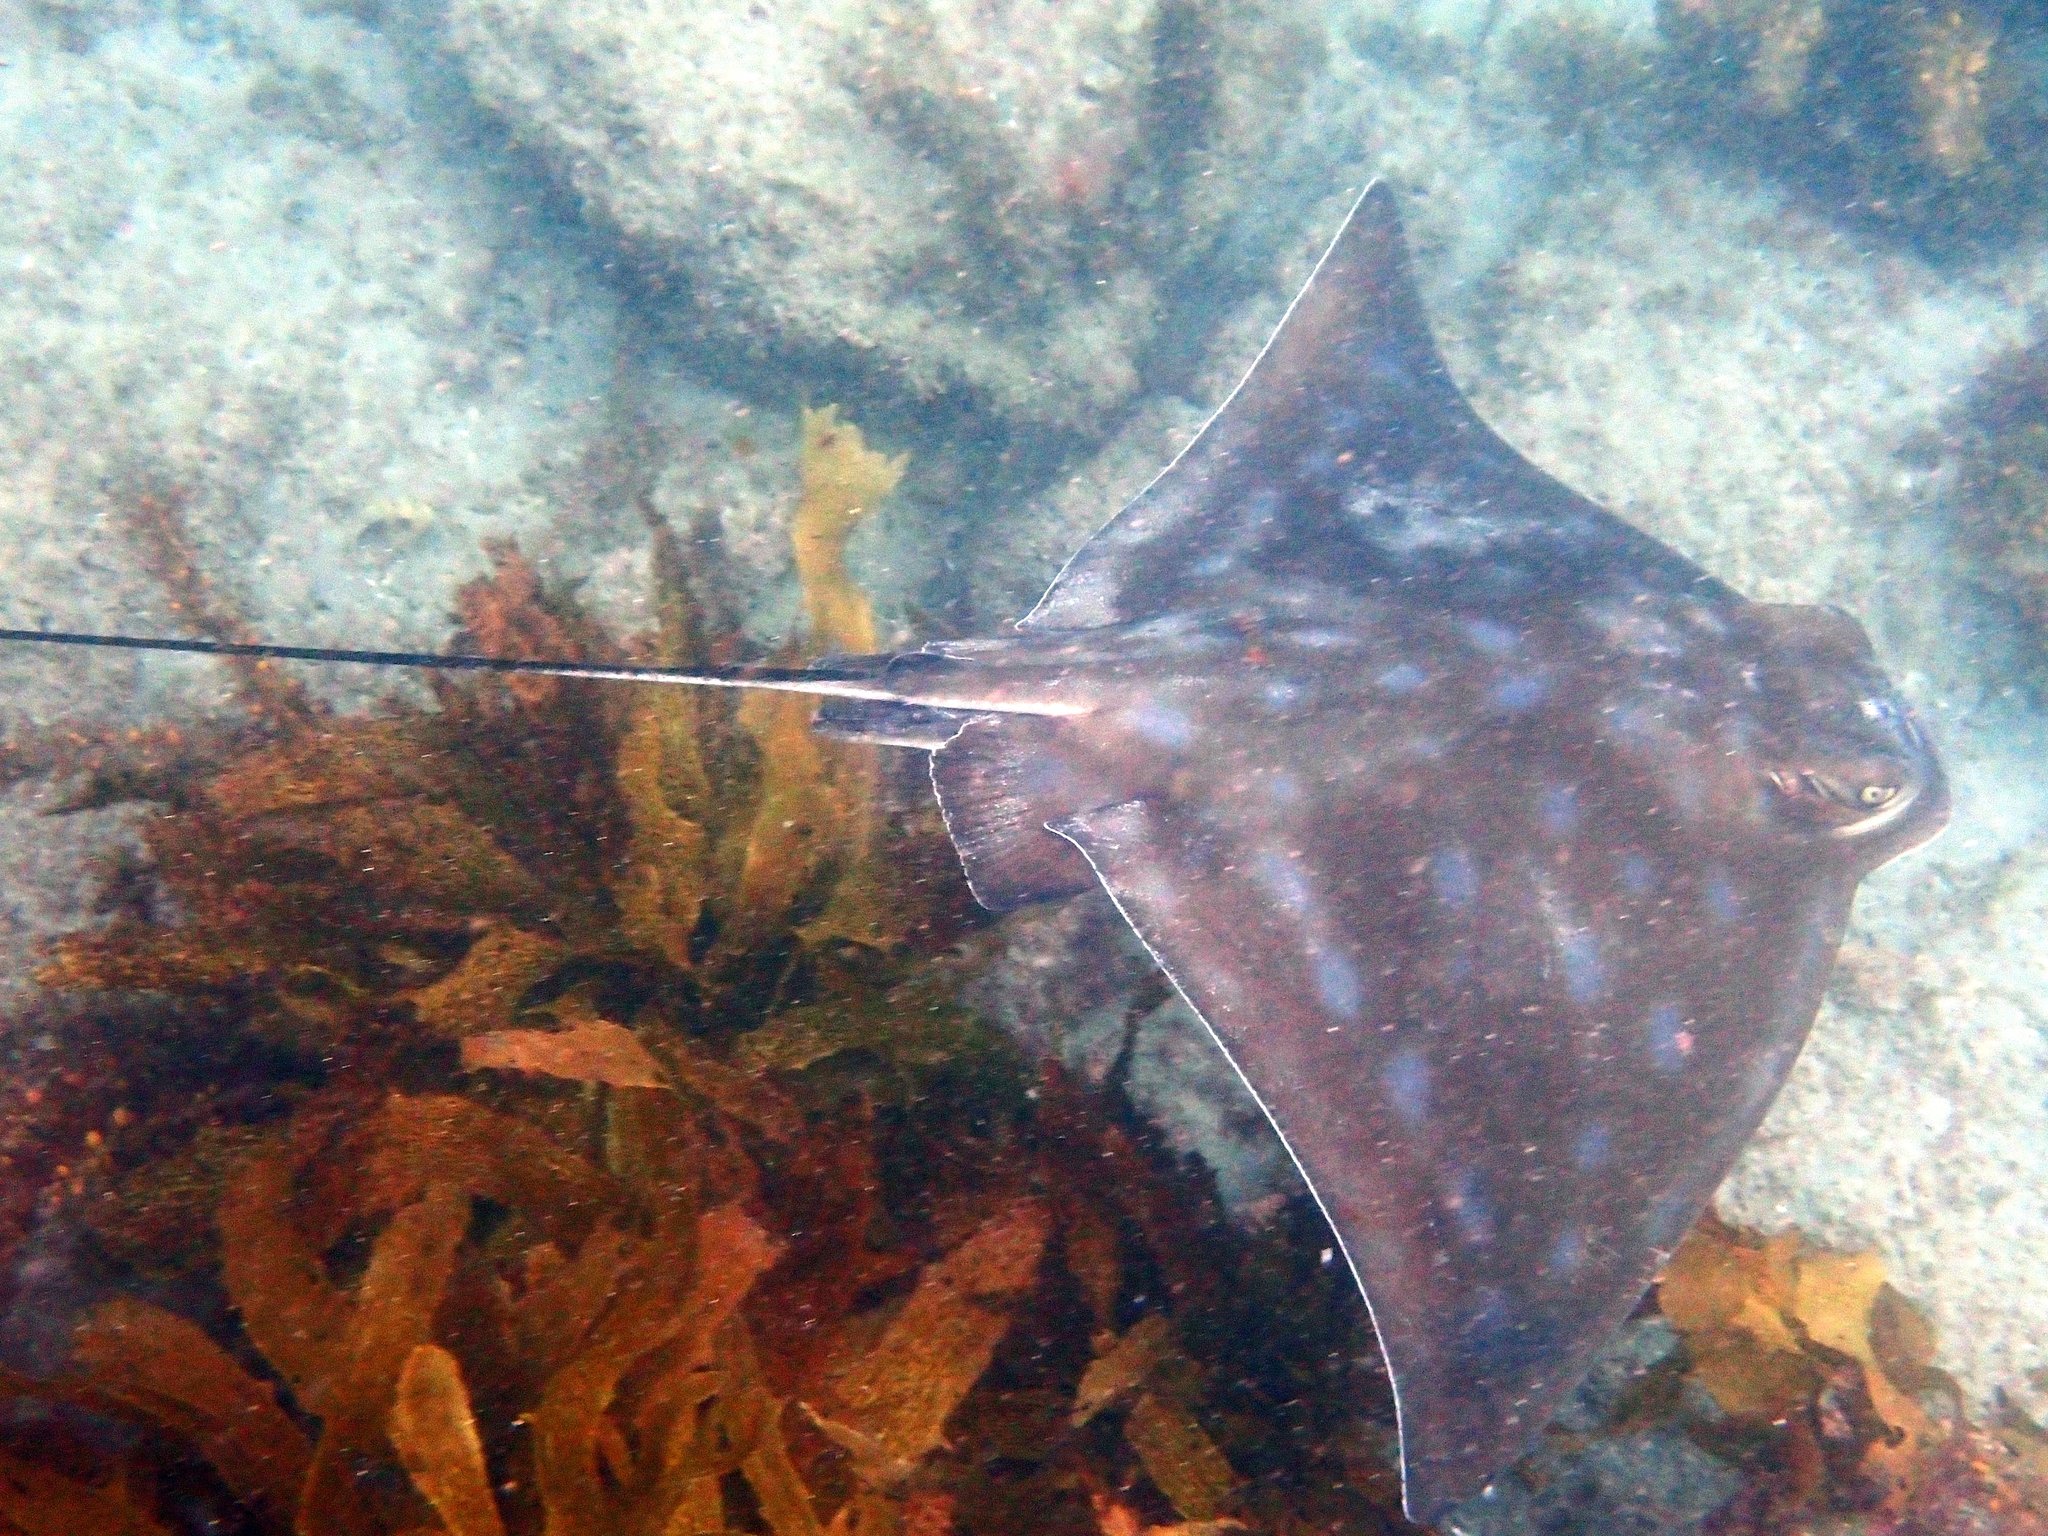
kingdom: Animalia
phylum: Chordata
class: Elasmobranchii
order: Myliobatiformes
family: Myliobatidae
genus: Myliobatis
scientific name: Myliobatis tenuicaudatus
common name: Eagle ray
